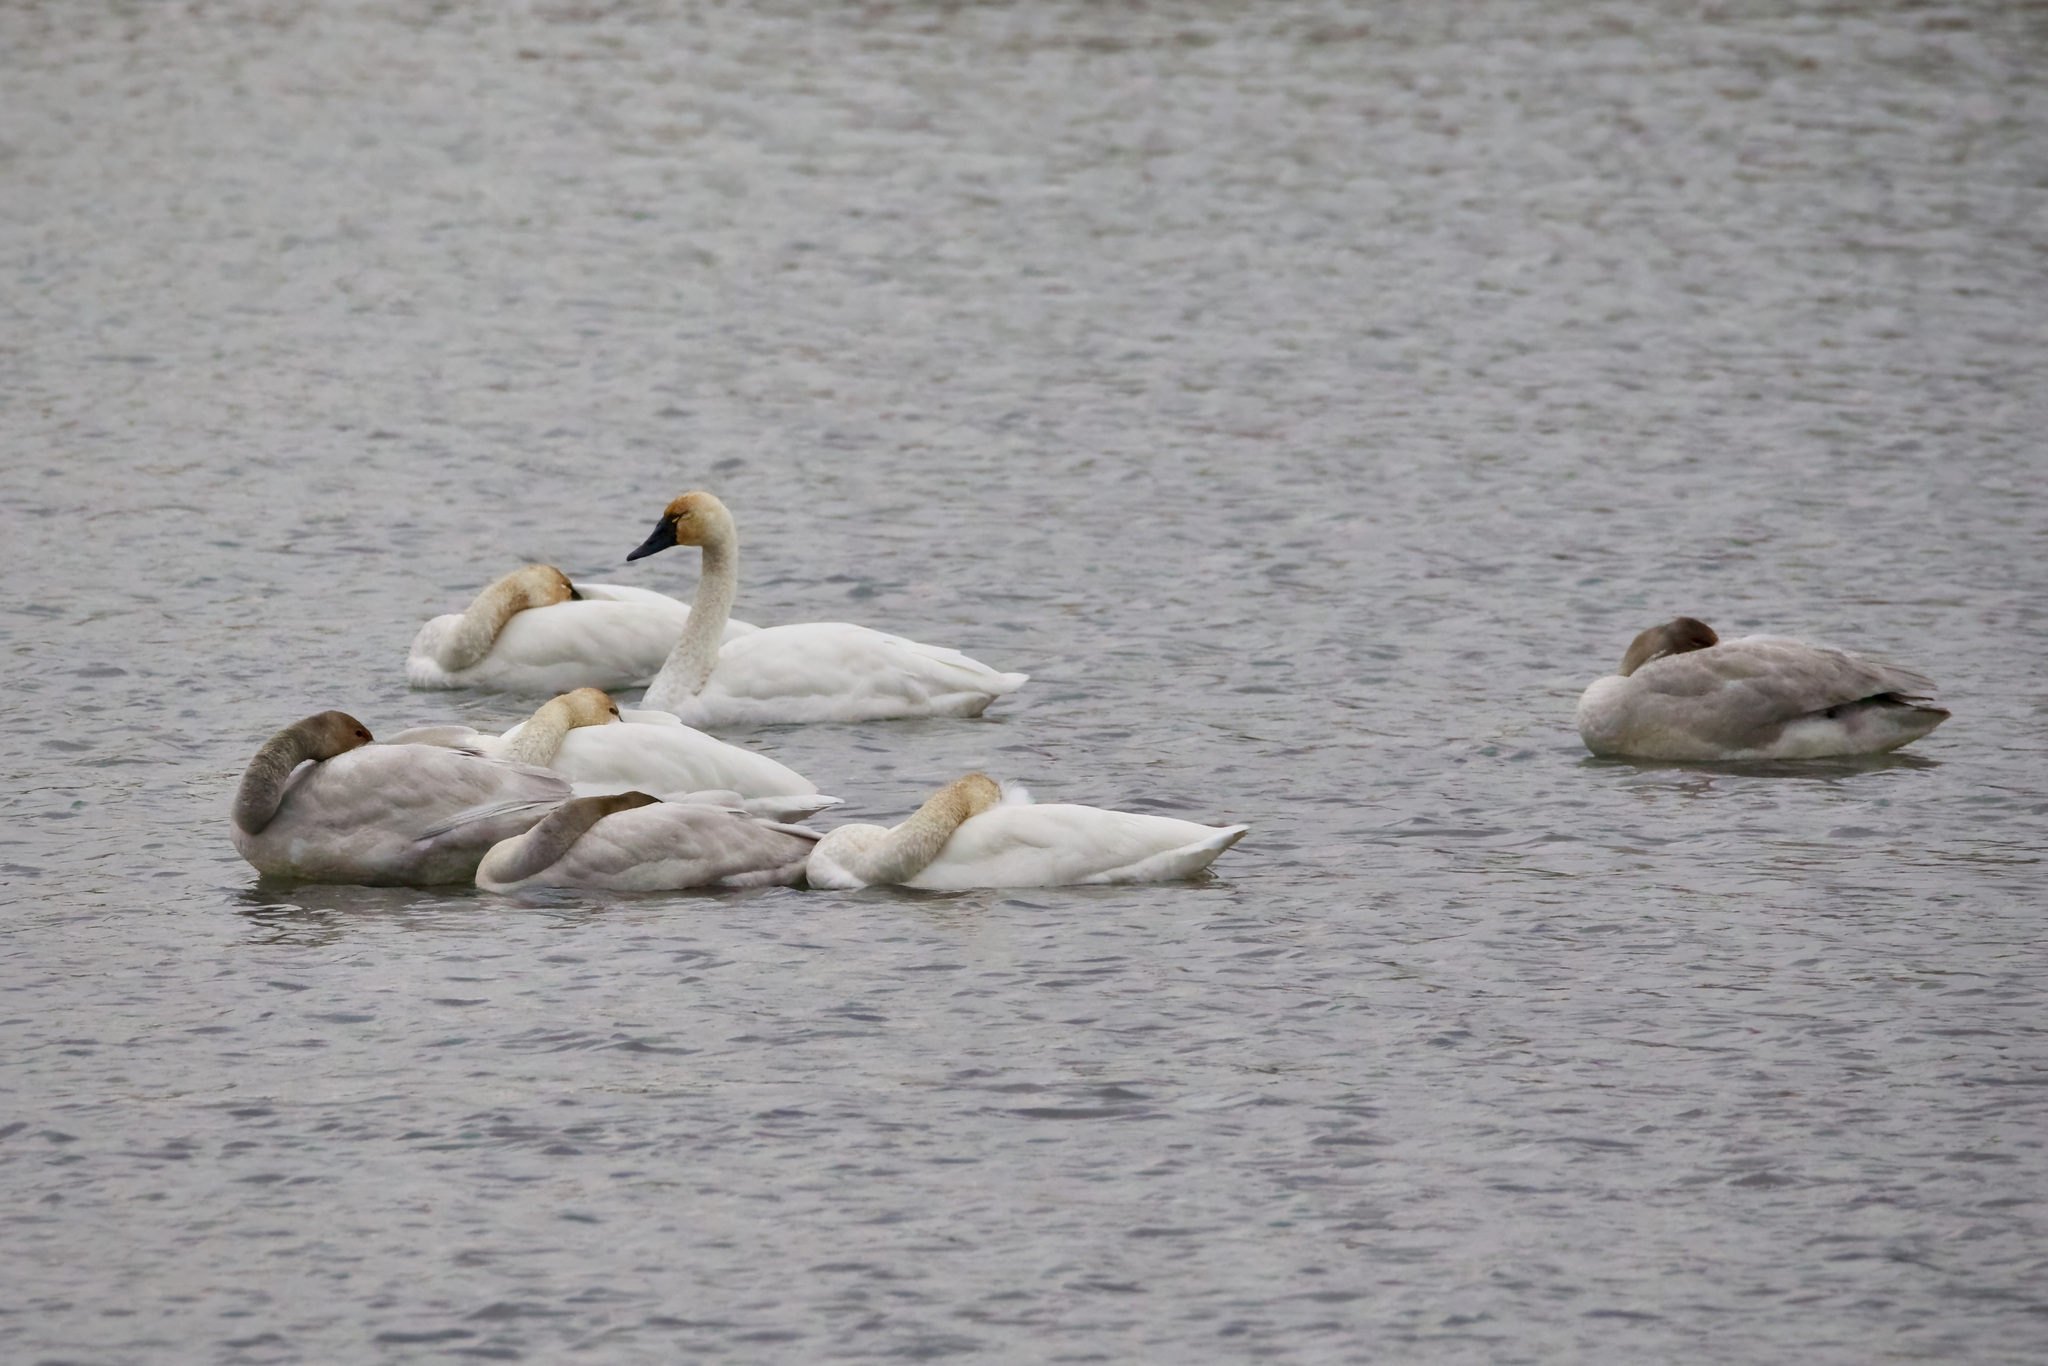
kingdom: Animalia
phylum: Chordata
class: Aves
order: Anseriformes
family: Anatidae
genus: Cygnus
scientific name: Cygnus columbianus
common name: Tundra swan
